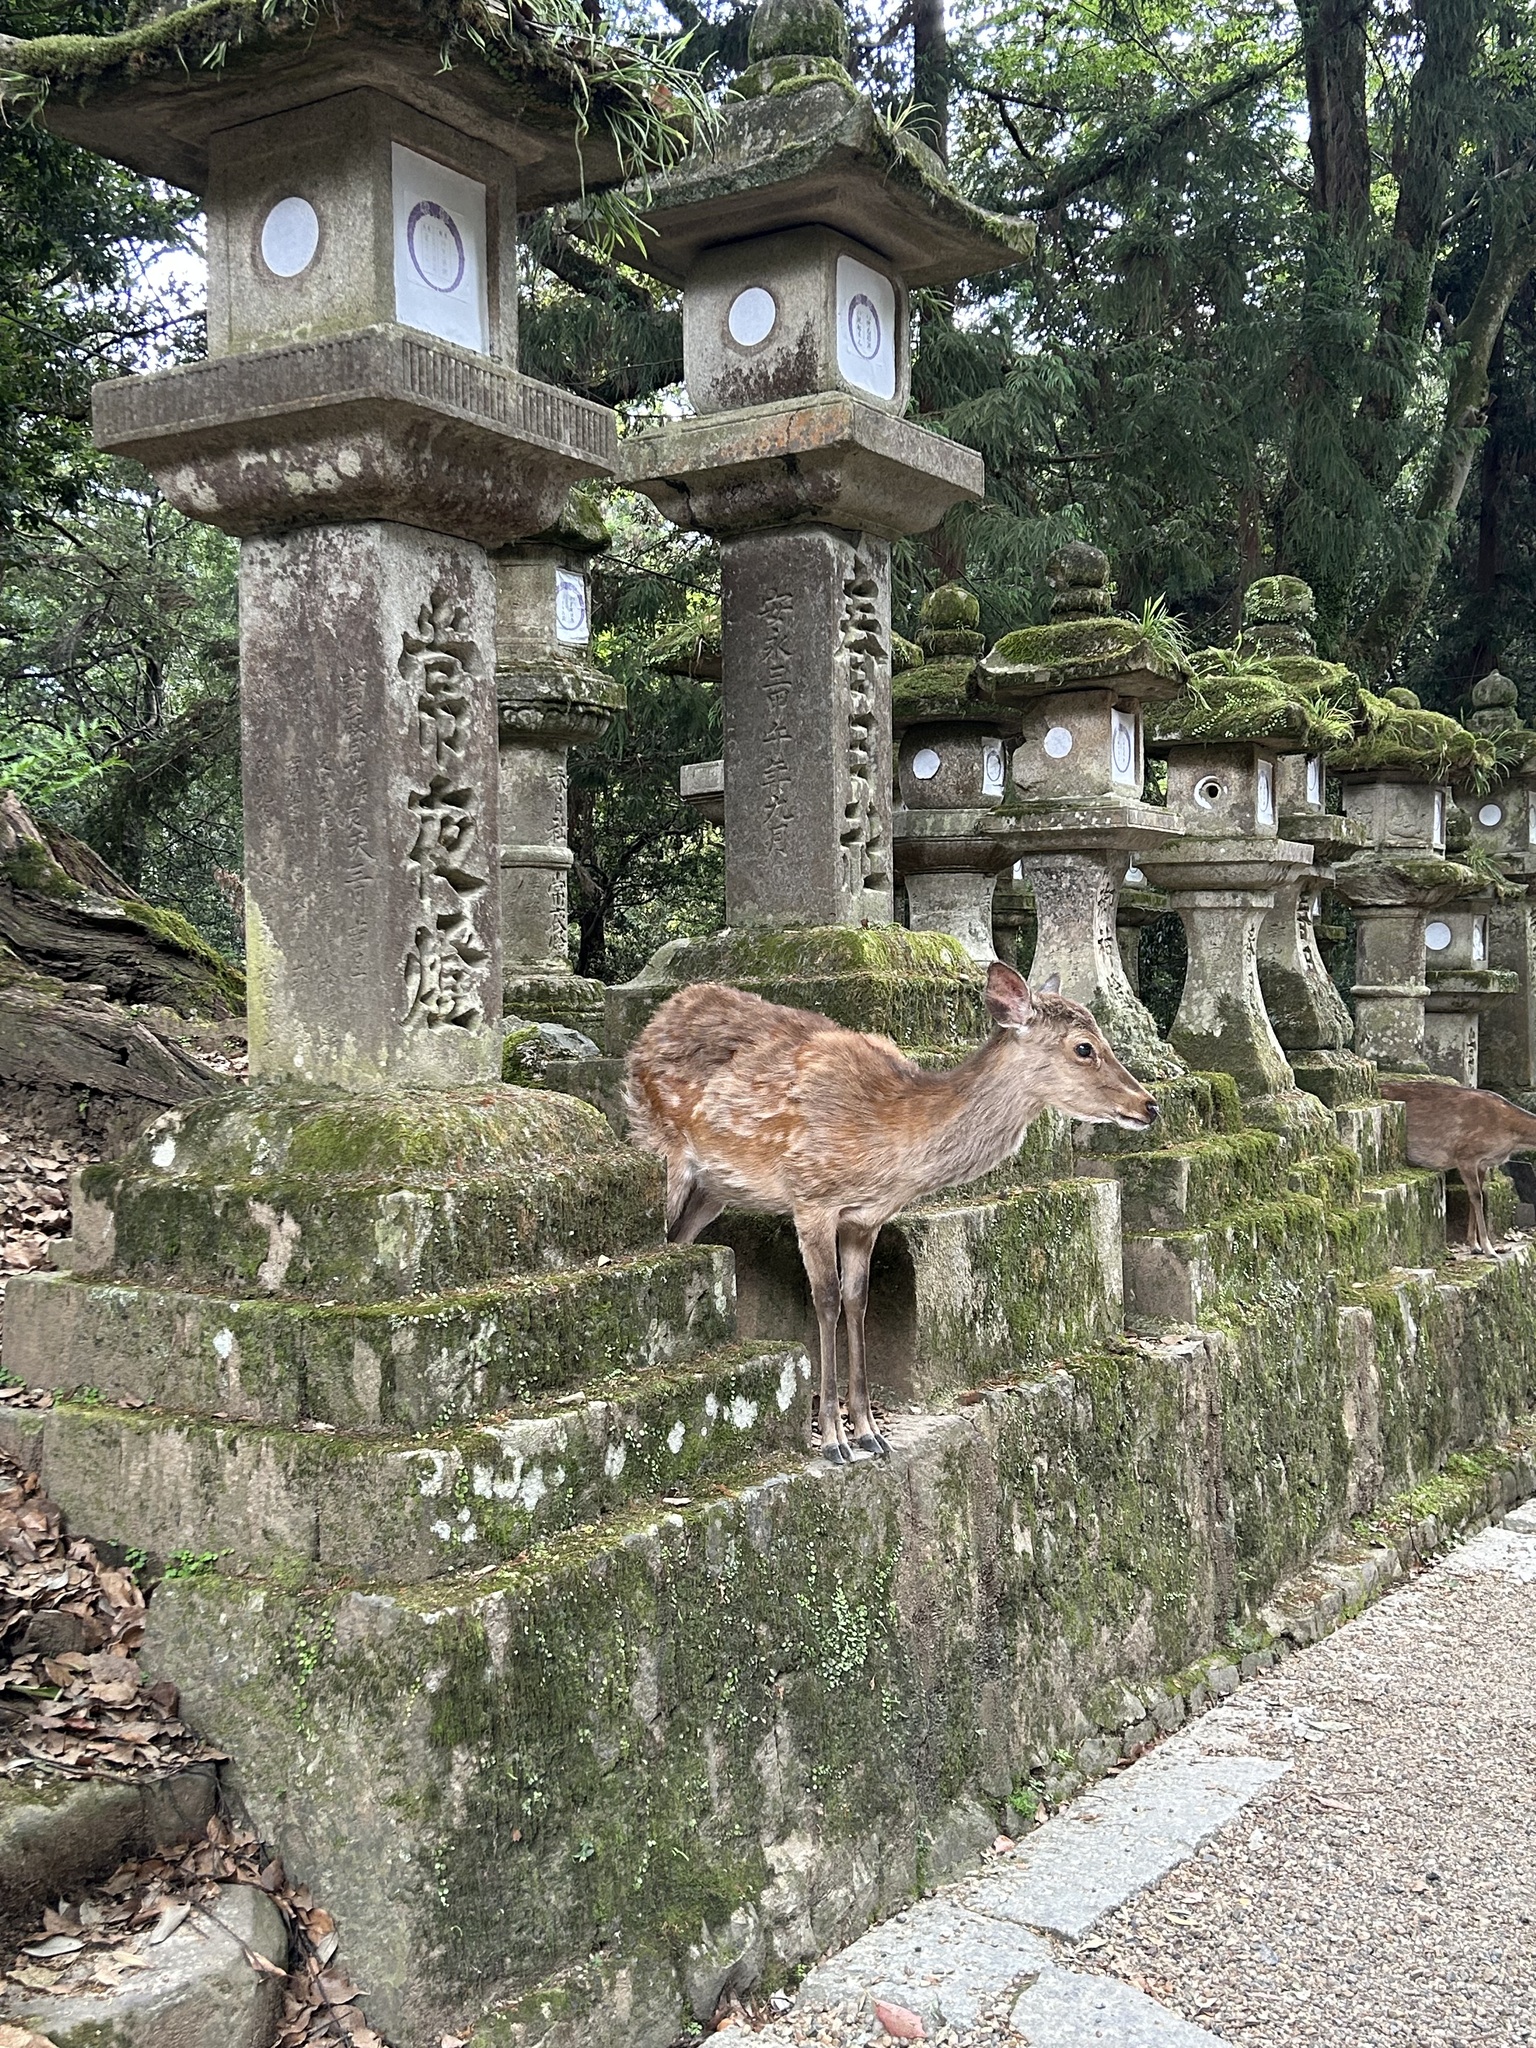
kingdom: Animalia
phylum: Chordata
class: Mammalia
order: Artiodactyla
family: Cervidae
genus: Cervus
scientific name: Cervus nippon
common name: Sika deer
